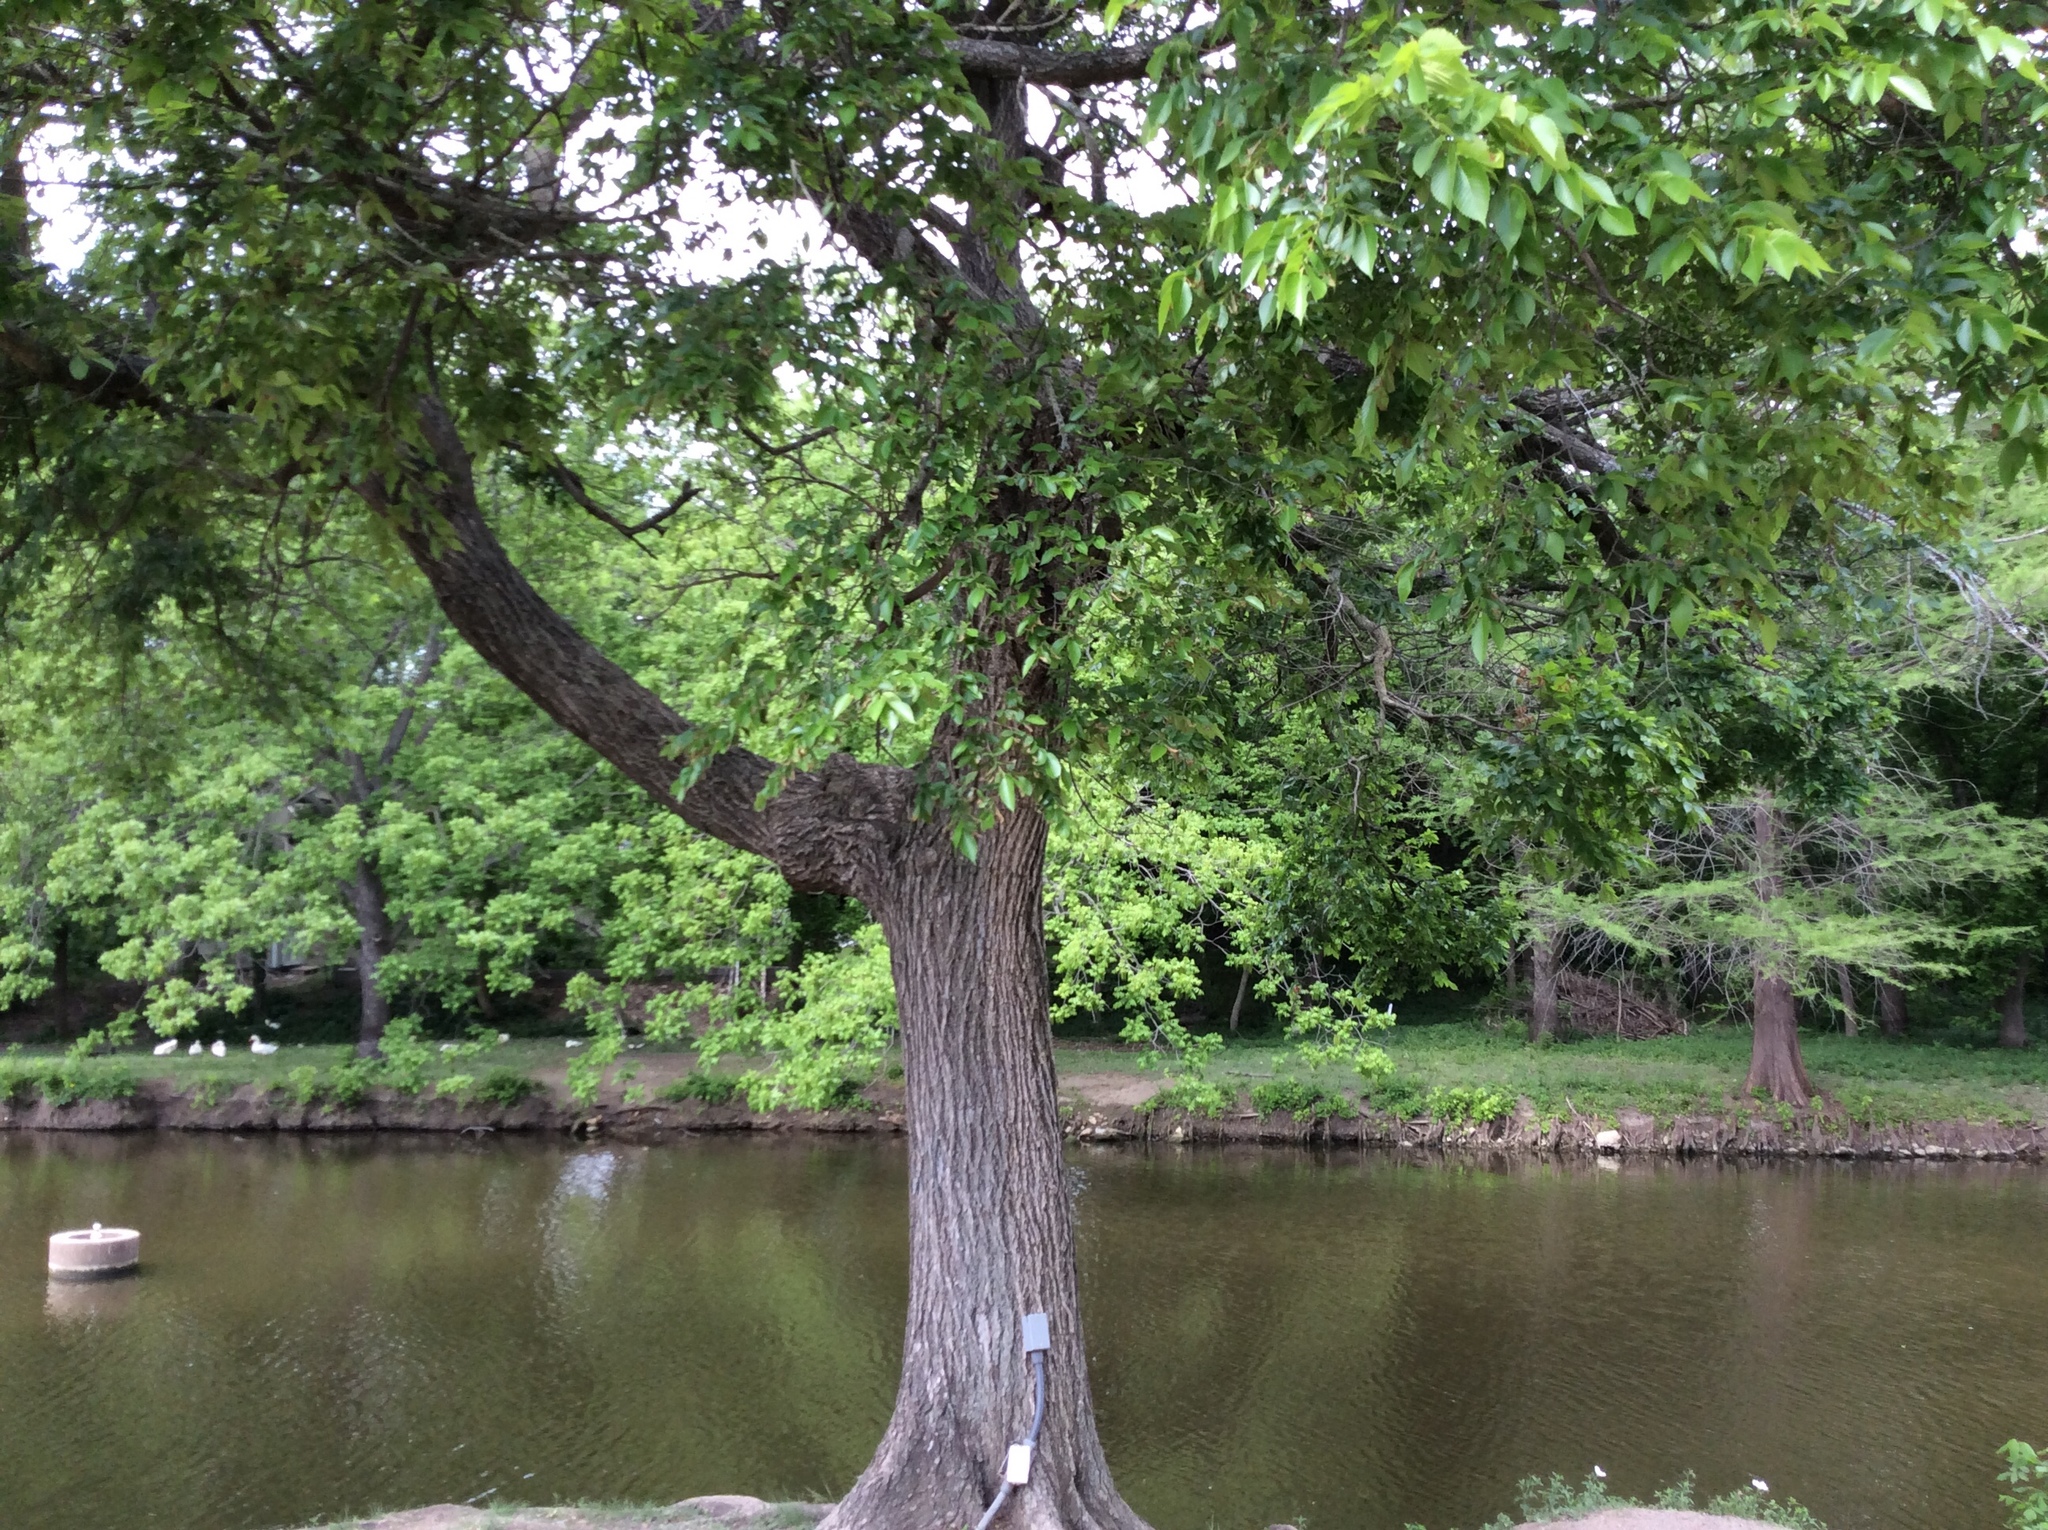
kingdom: Plantae
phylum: Tracheophyta
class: Magnoliopsida
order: Rosales
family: Ulmaceae
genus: Ulmus
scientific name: Ulmus americana
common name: American elm
